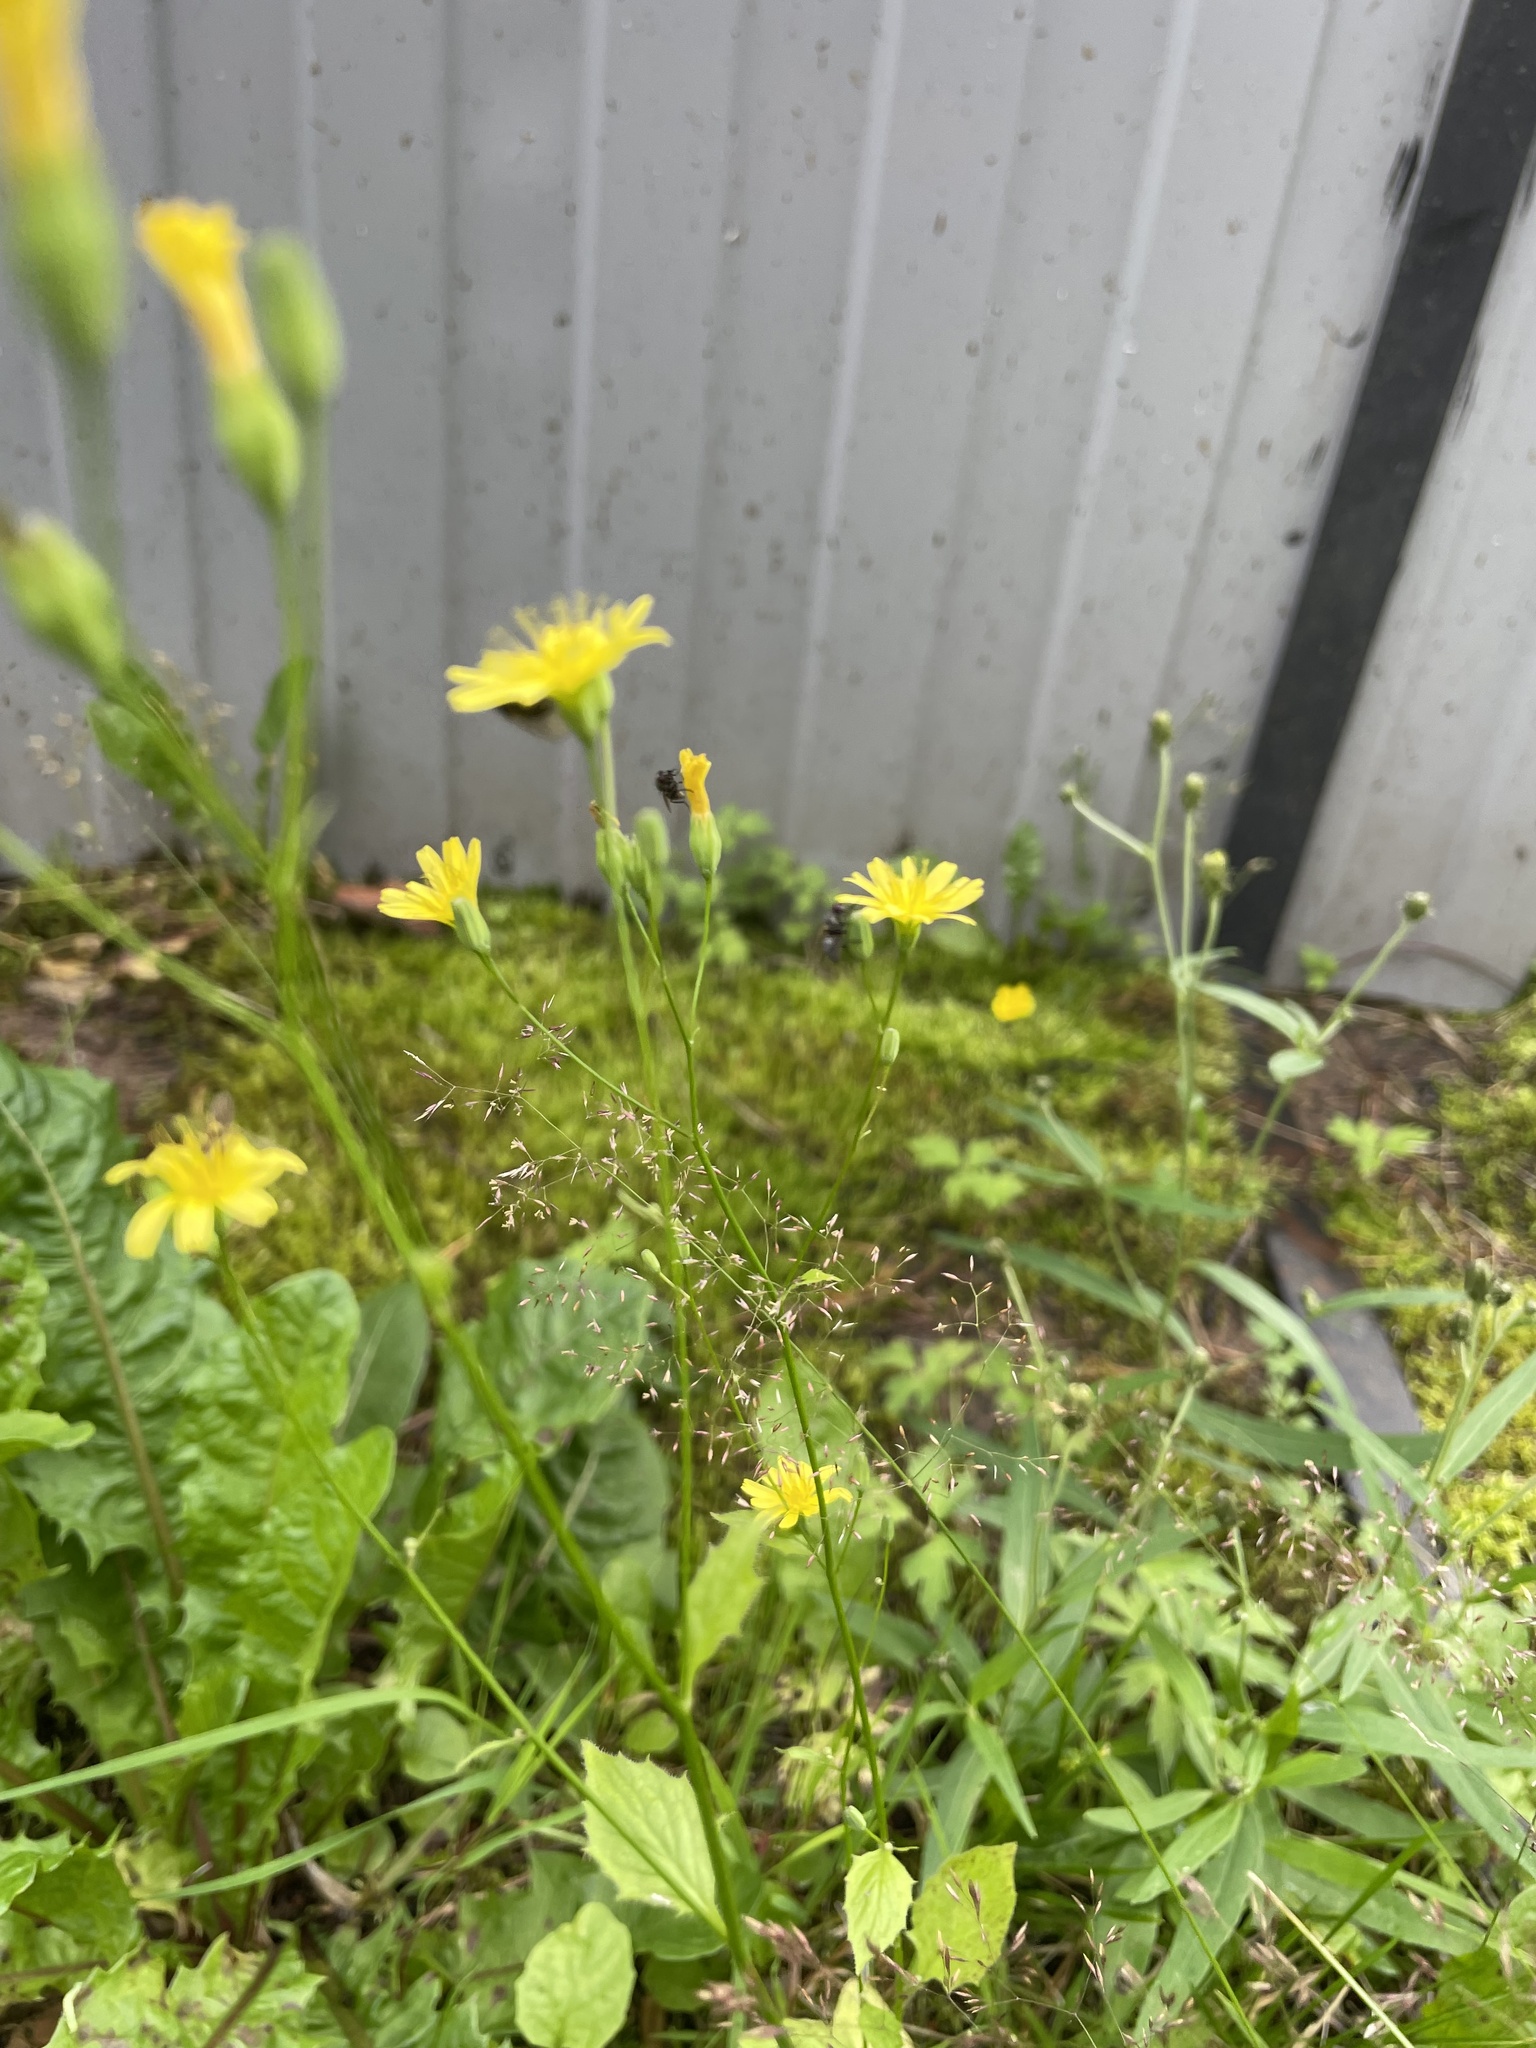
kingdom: Plantae
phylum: Tracheophyta
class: Magnoliopsida
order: Asterales
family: Asteraceae
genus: Lapsana
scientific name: Lapsana communis
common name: Nipplewort
